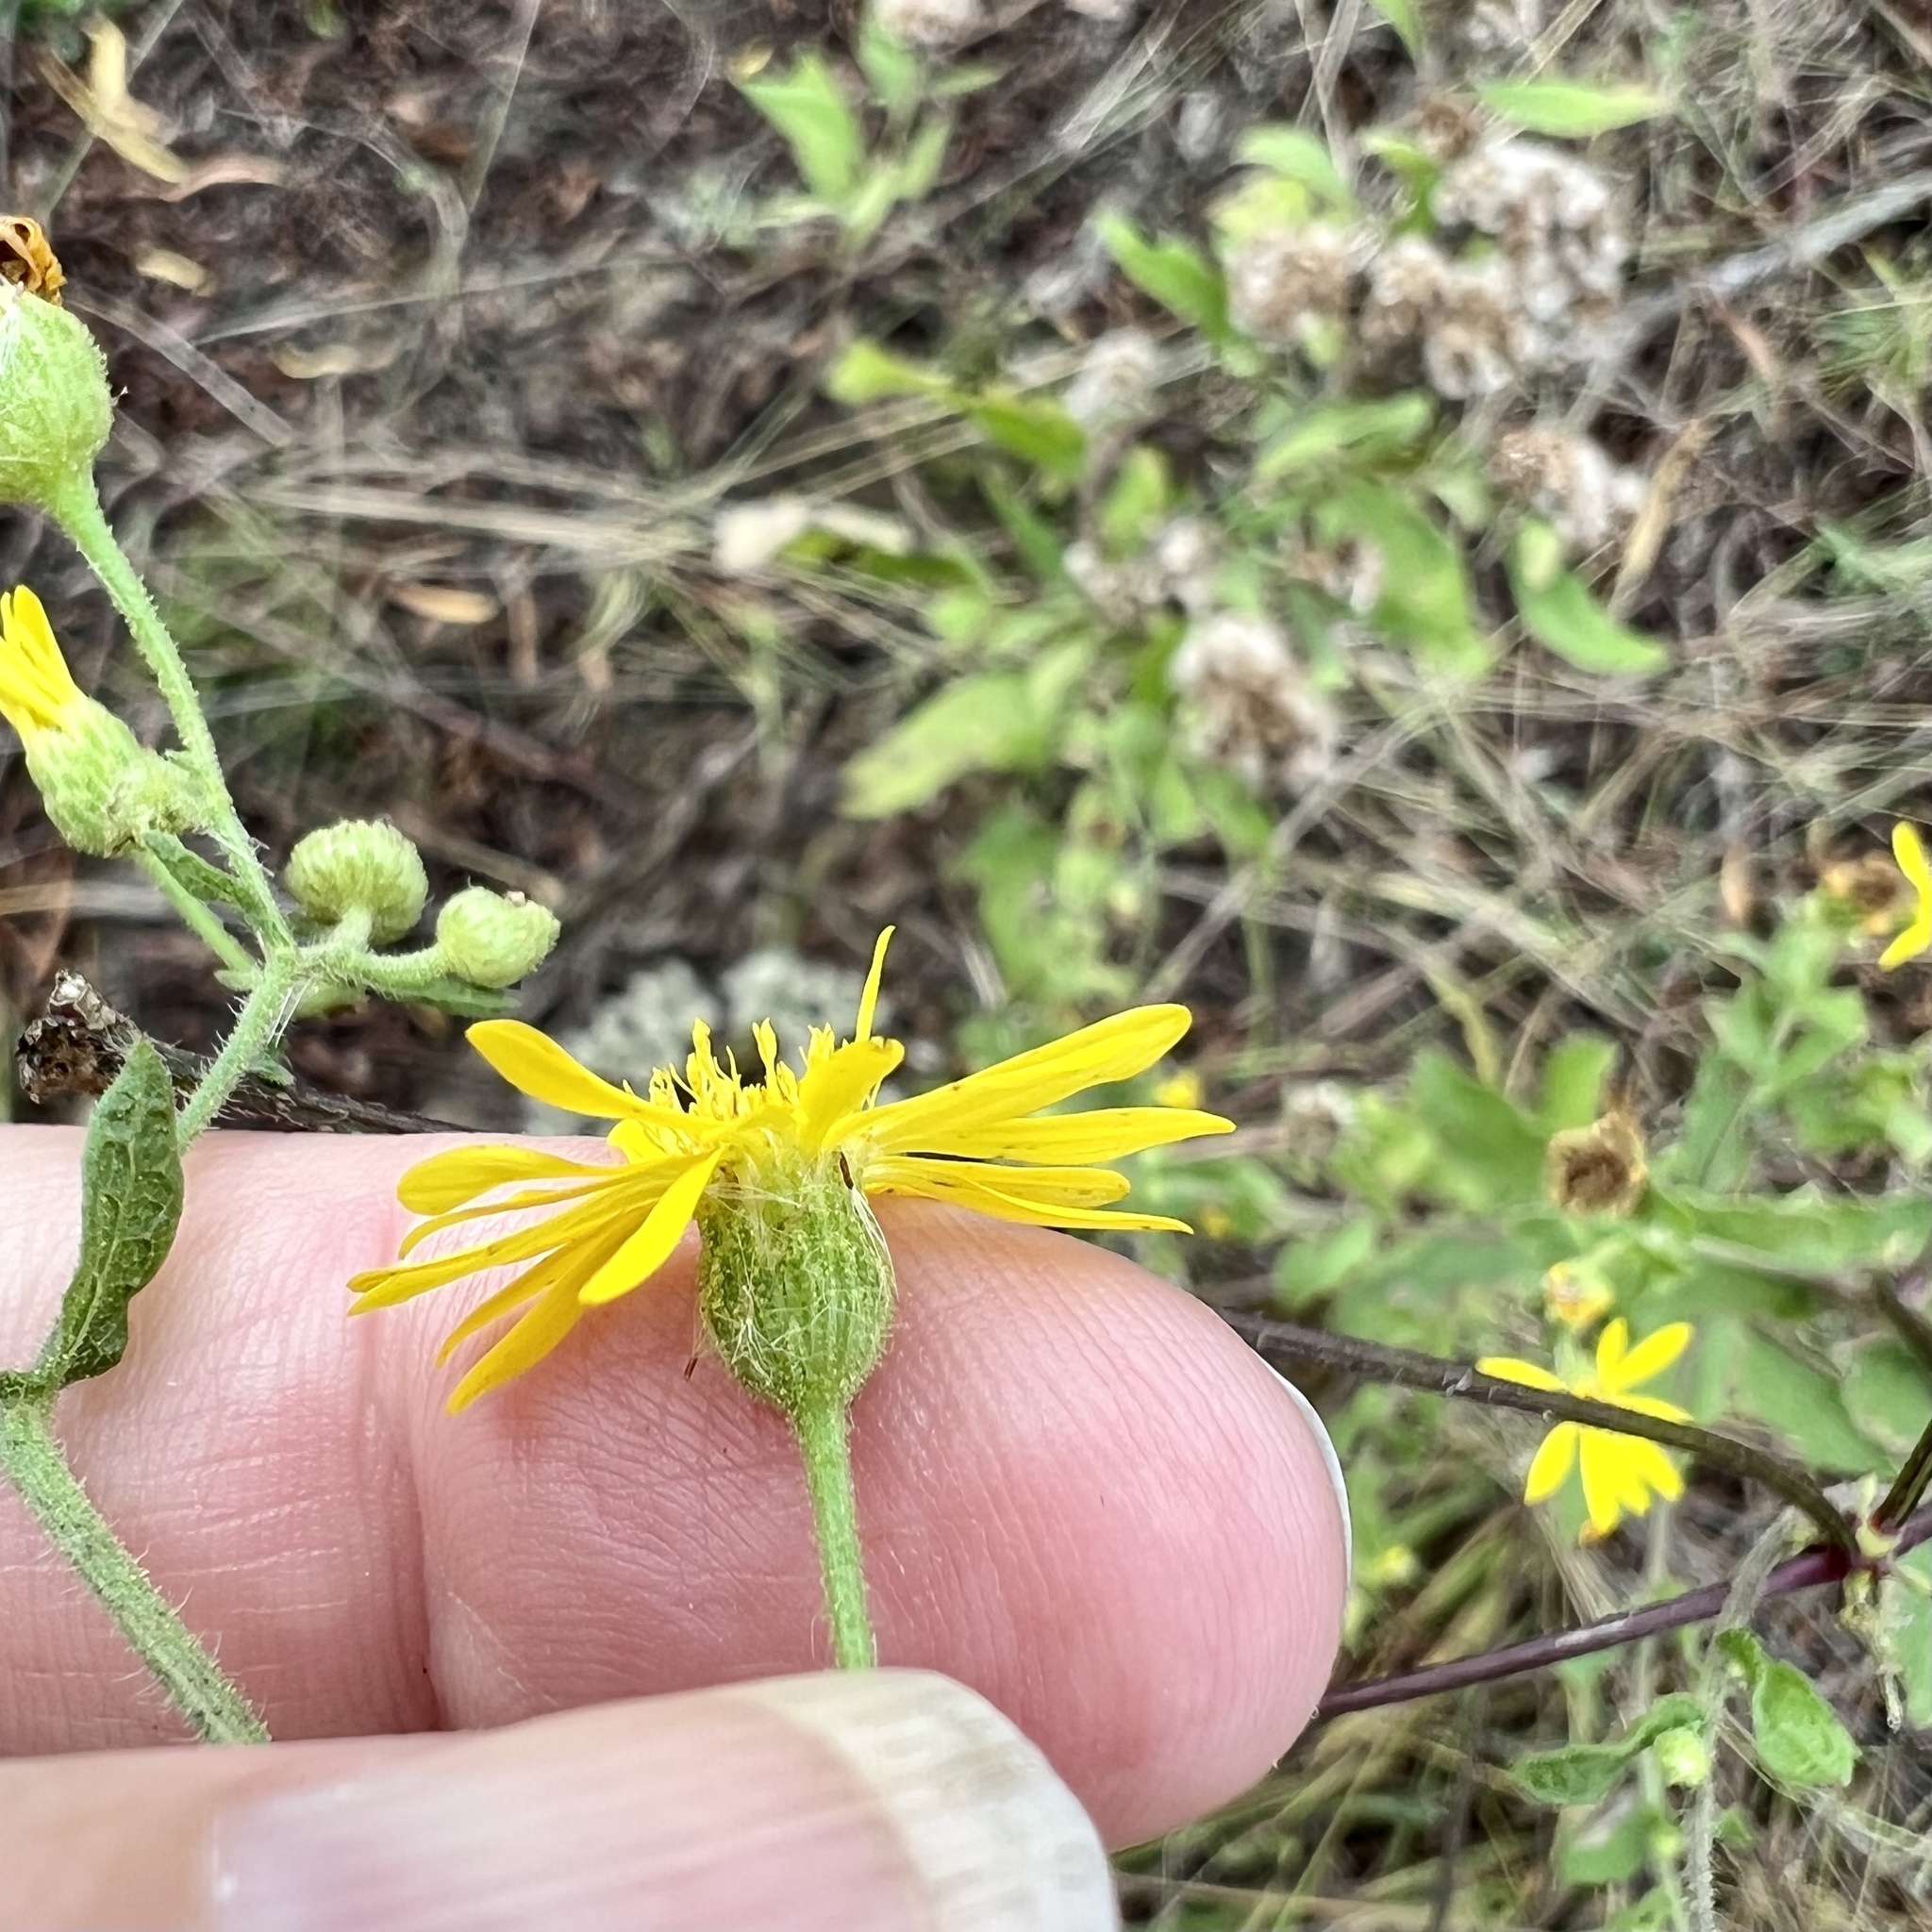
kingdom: Plantae
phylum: Tracheophyta
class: Magnoliopsida
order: Asterales
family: Asteraceae
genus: Heterotheca
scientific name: Heterotheca subaxillaris
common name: Camphorweed
